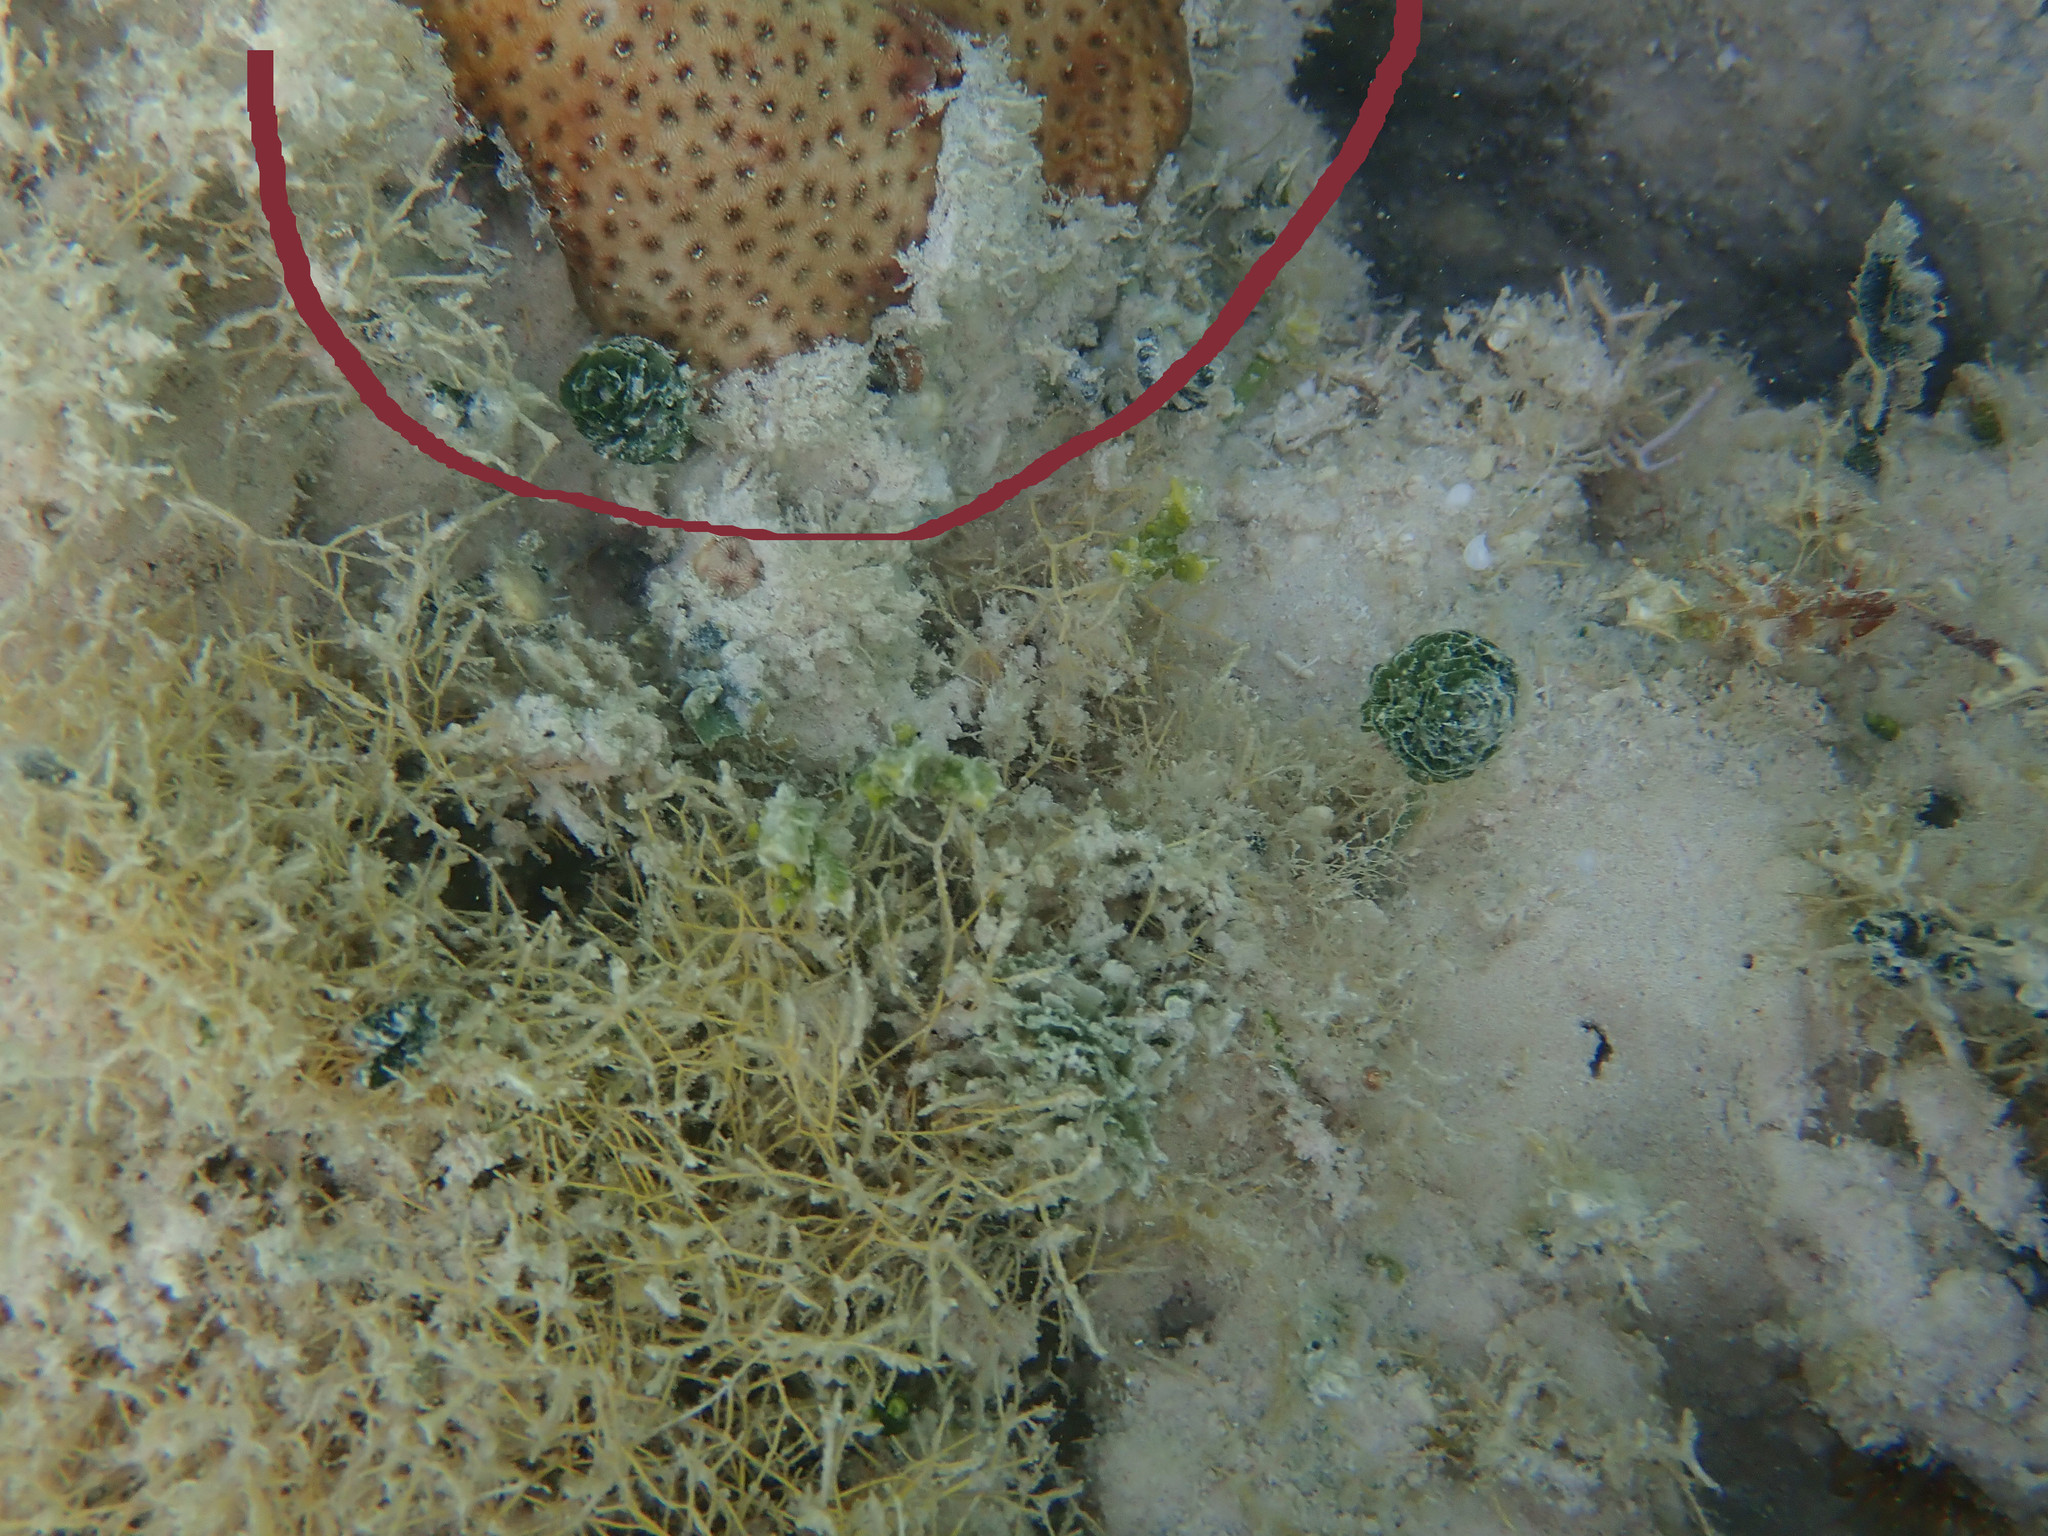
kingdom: Animalia
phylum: Cnidaria
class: Anthozoa
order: Scleractinia
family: Rhizangiidae
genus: Siderastrea
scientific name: Siderastrea radians
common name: Lesser starlet coral
